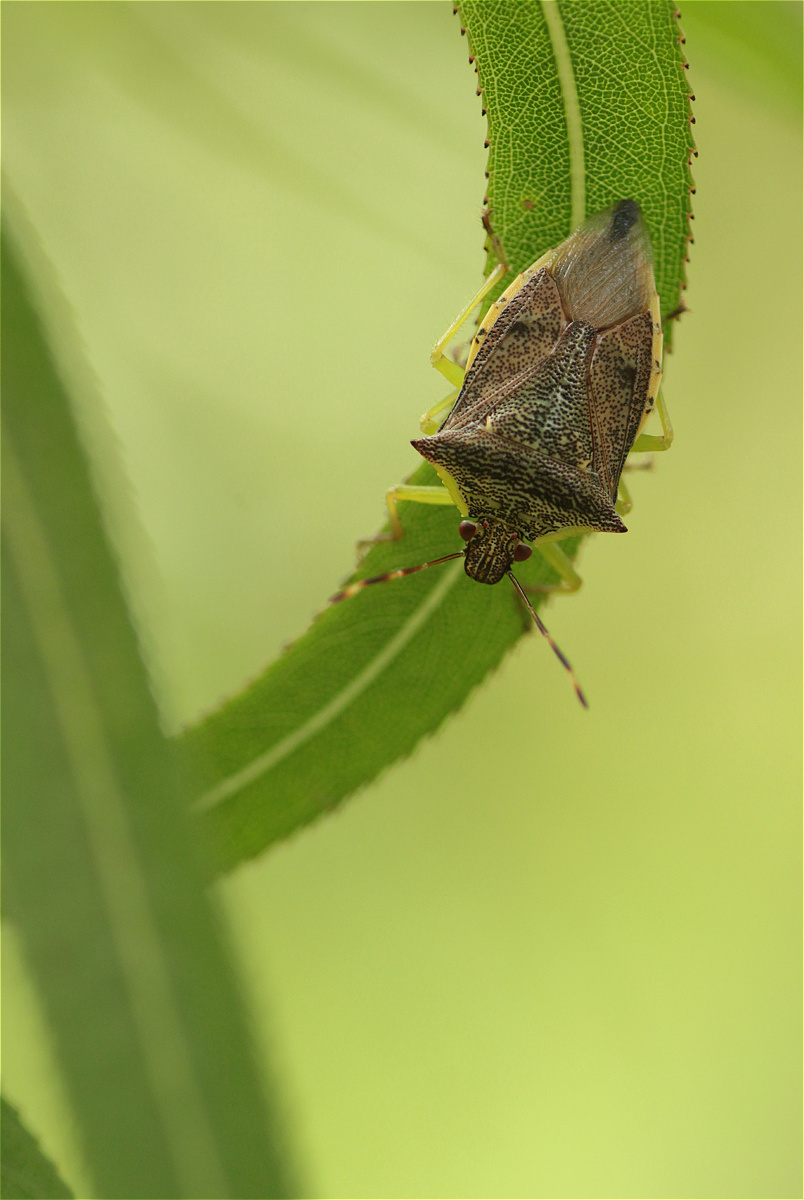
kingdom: Animalia
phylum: Arthropoda
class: Insecta
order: Hemiptera
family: Pentatomidae
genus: Podisus
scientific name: Podisus
